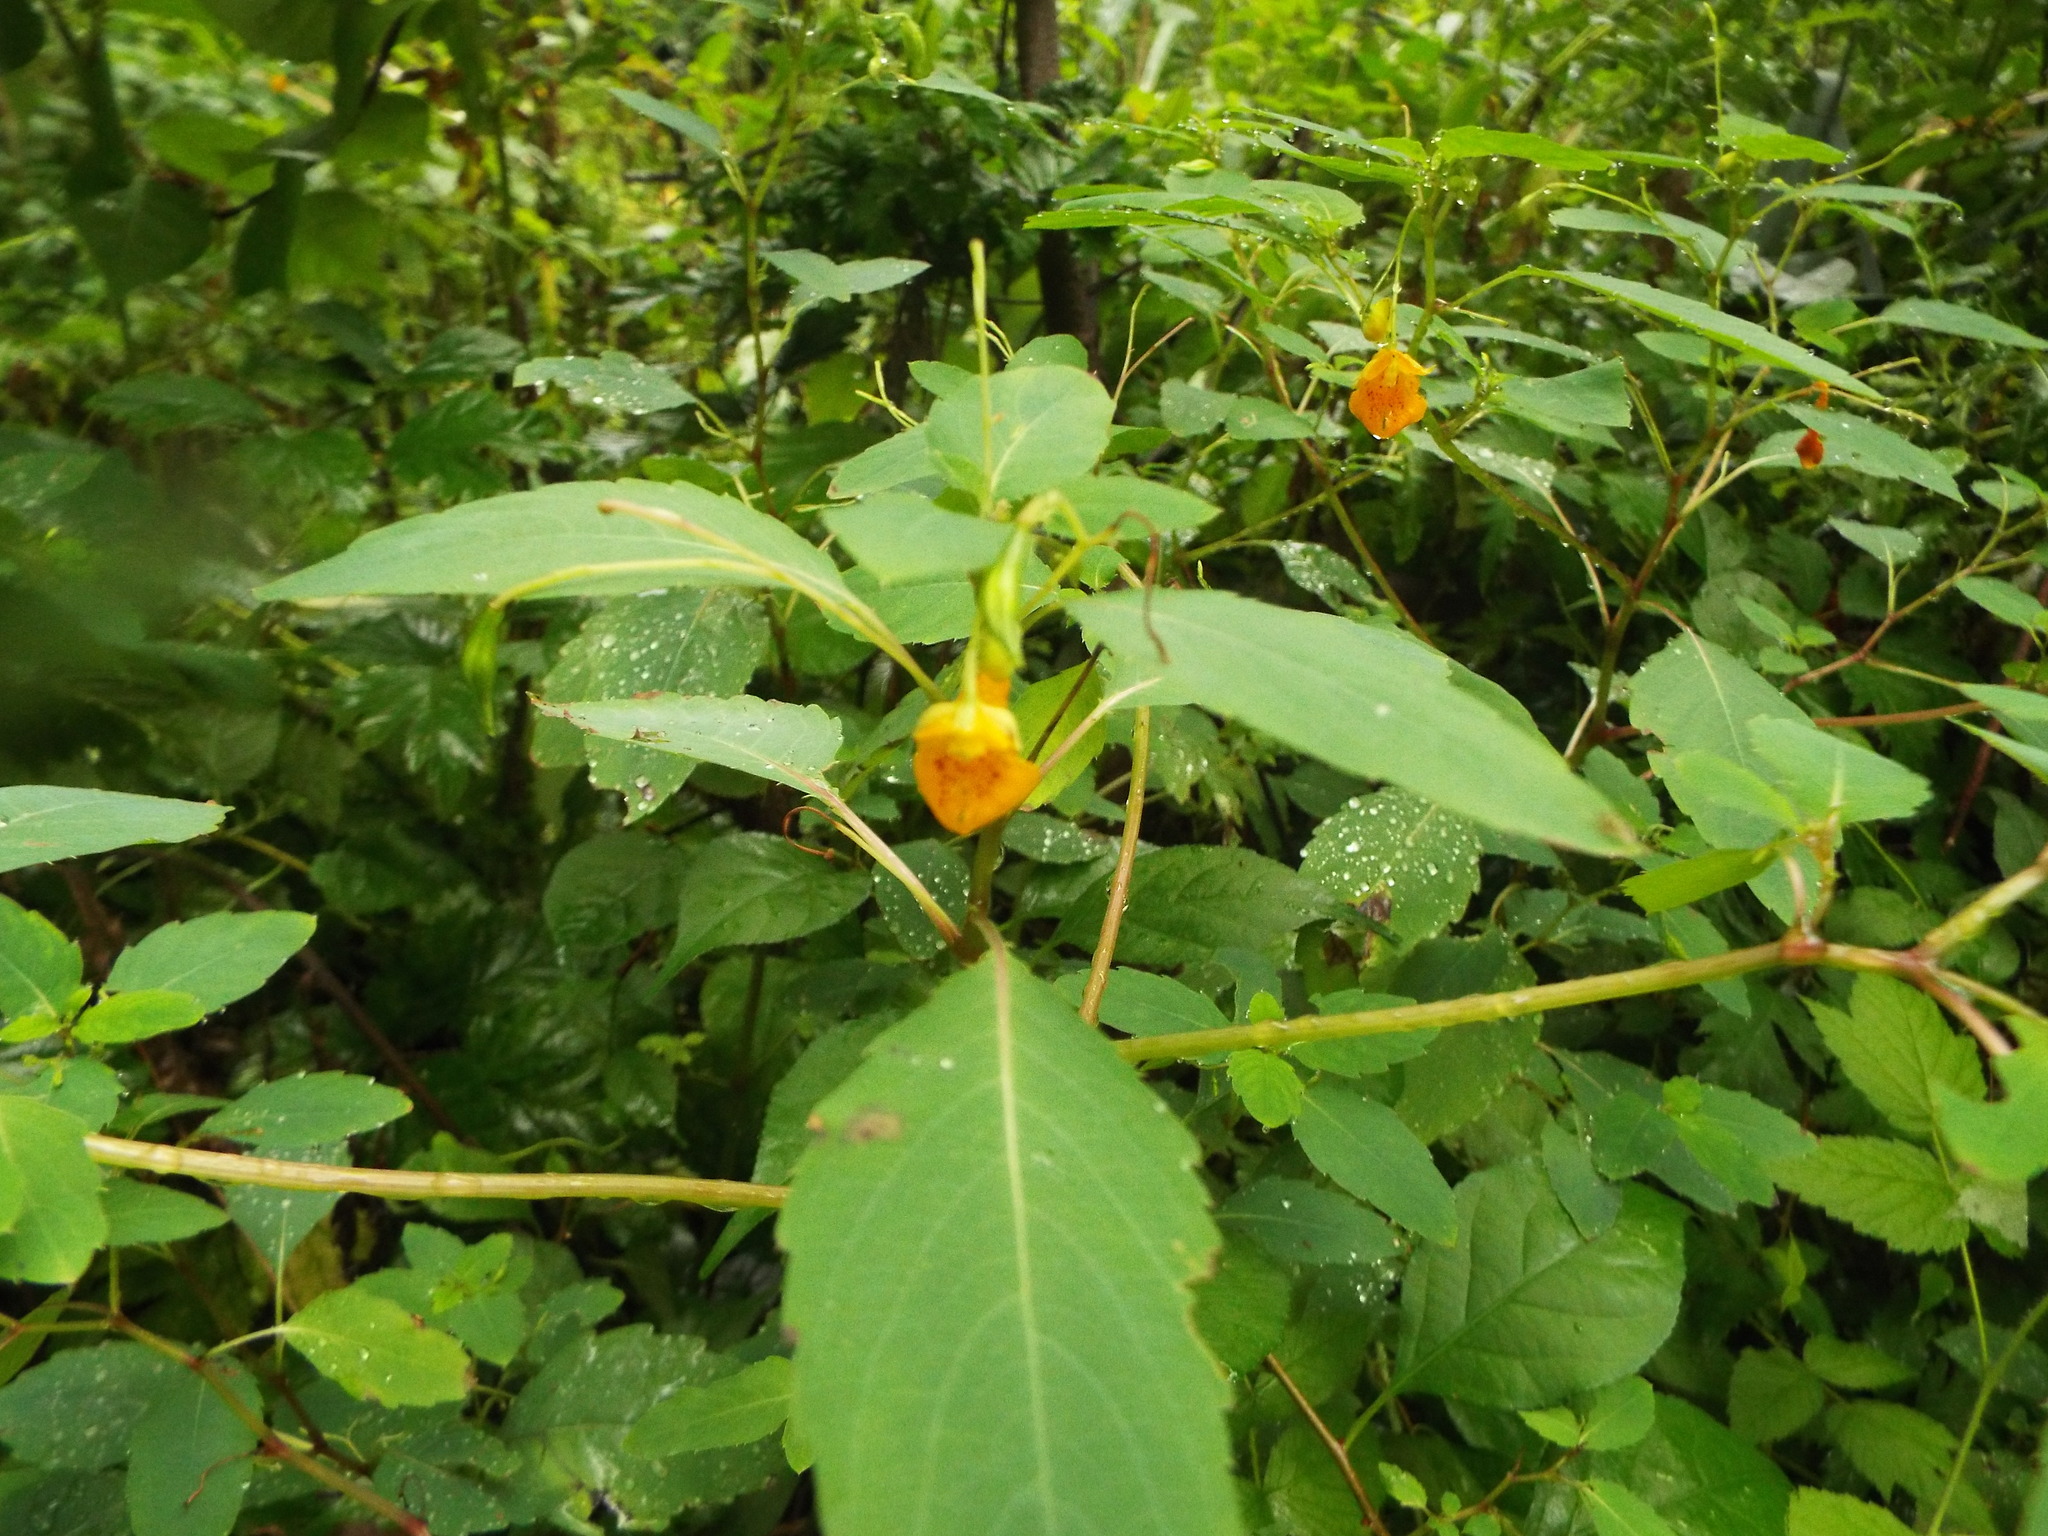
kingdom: Plantae
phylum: Tracheophyta
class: Magnoliopsida
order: Ericales
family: Balsaminaceae
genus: Impatiens
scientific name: Impatiens capensis
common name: Orange balsam
